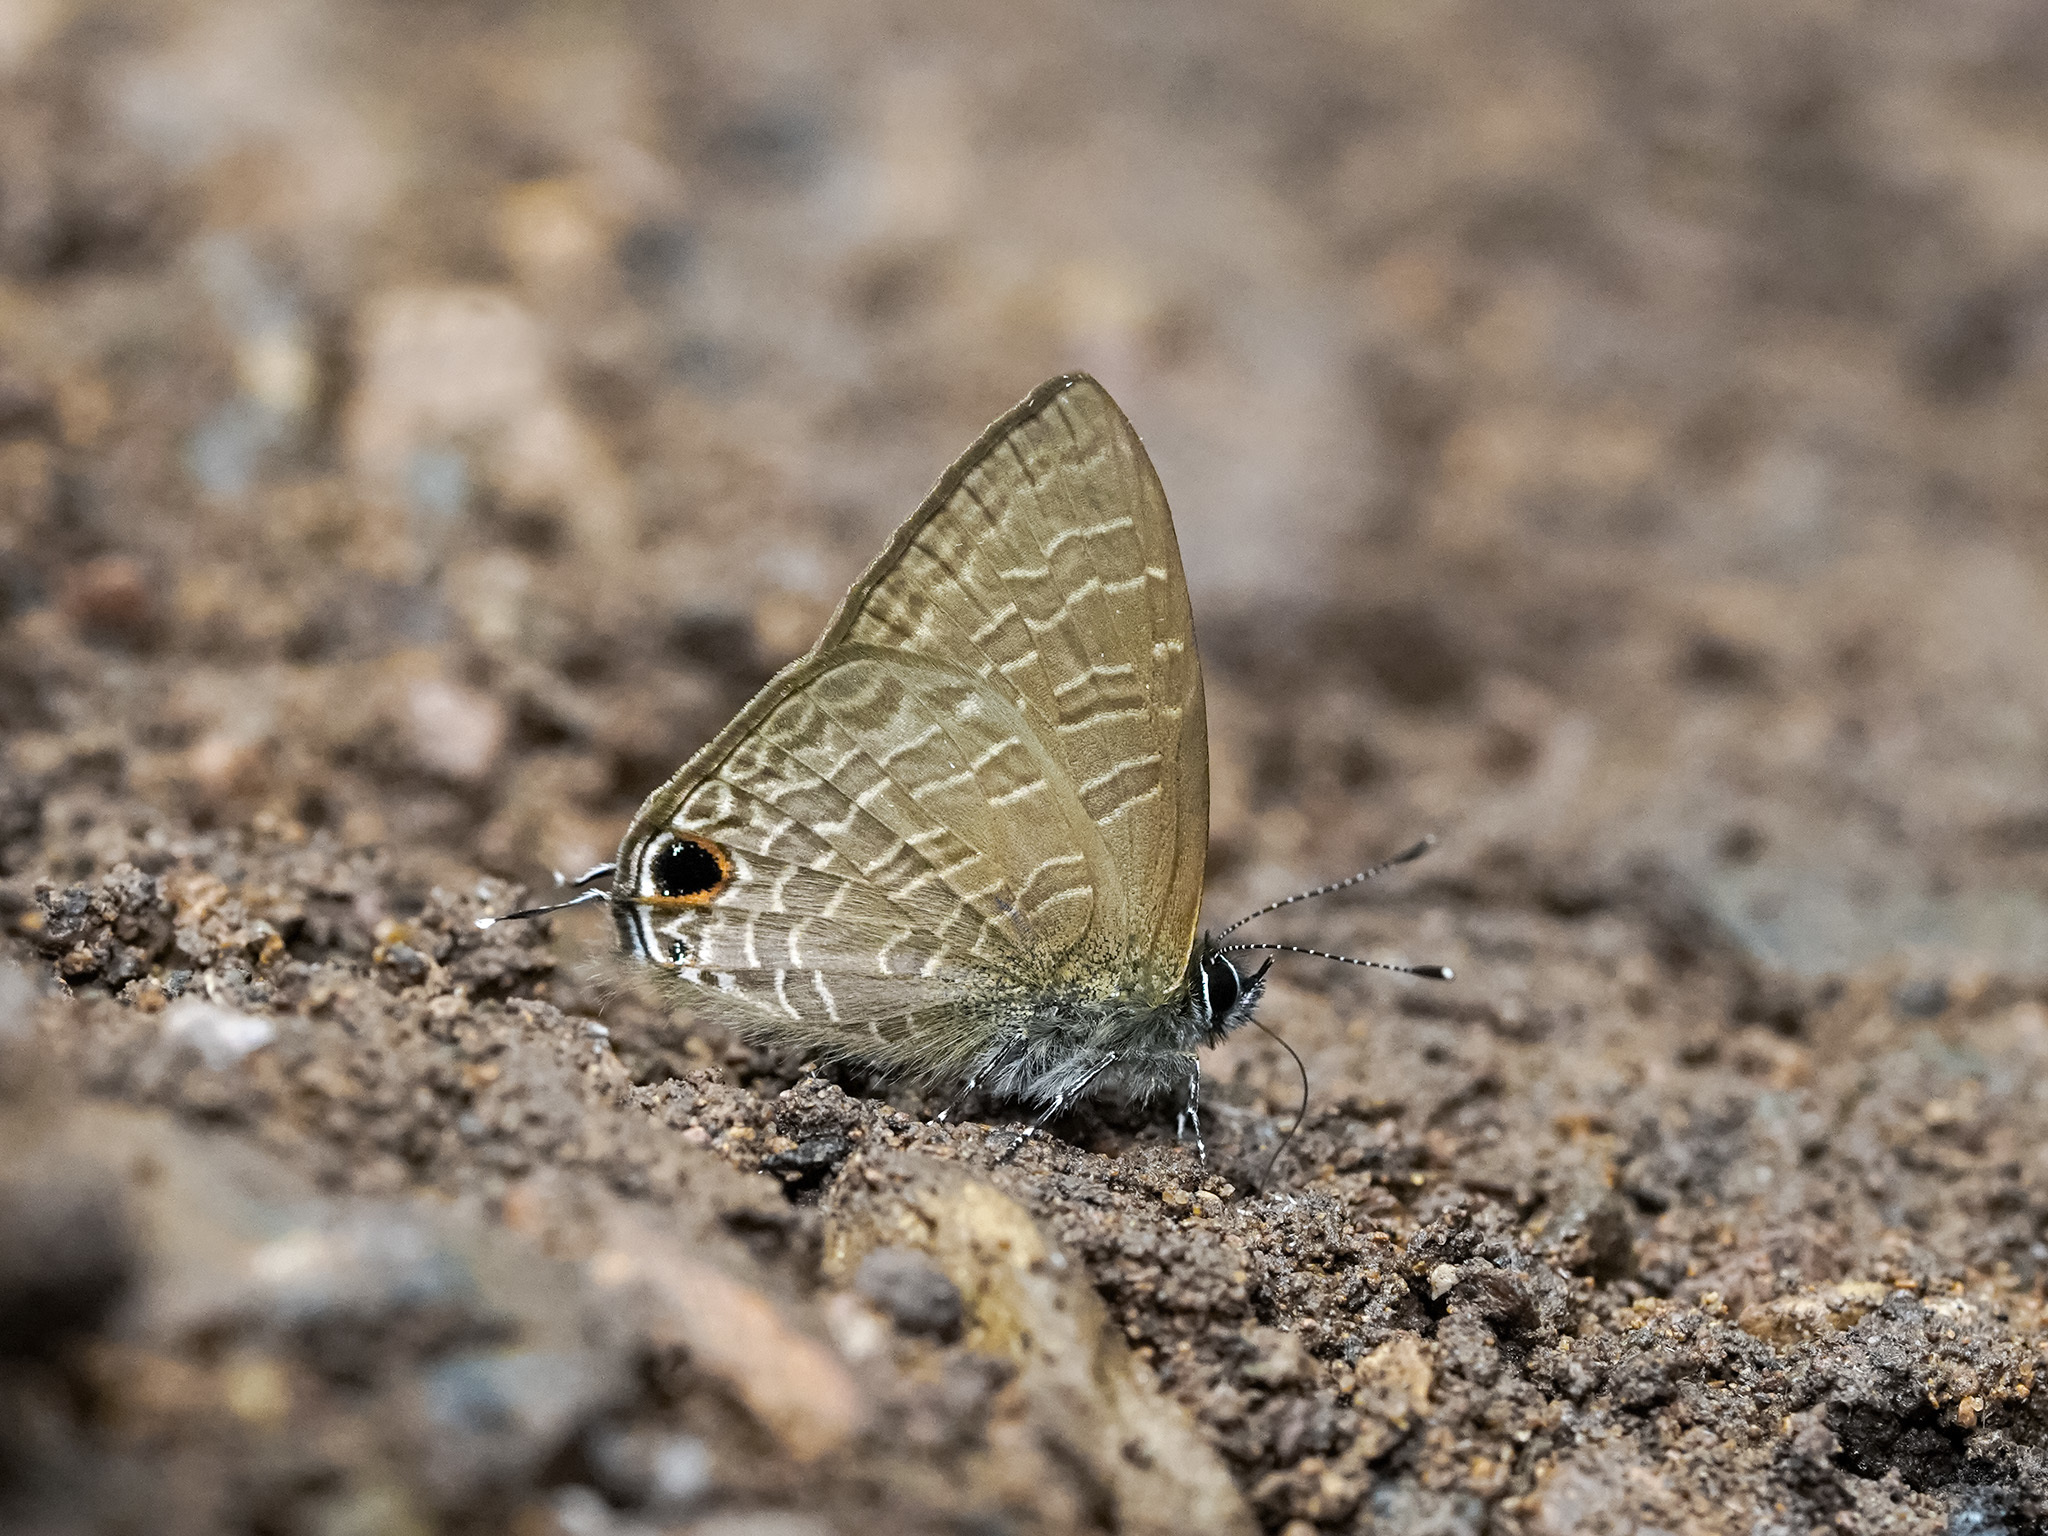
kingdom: Animalia
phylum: Arthropoda
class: Insecta
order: Lepidoptera
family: Lycaenidae
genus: Ionolyce
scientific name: Ionolyce helicon
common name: Pointed line blue
